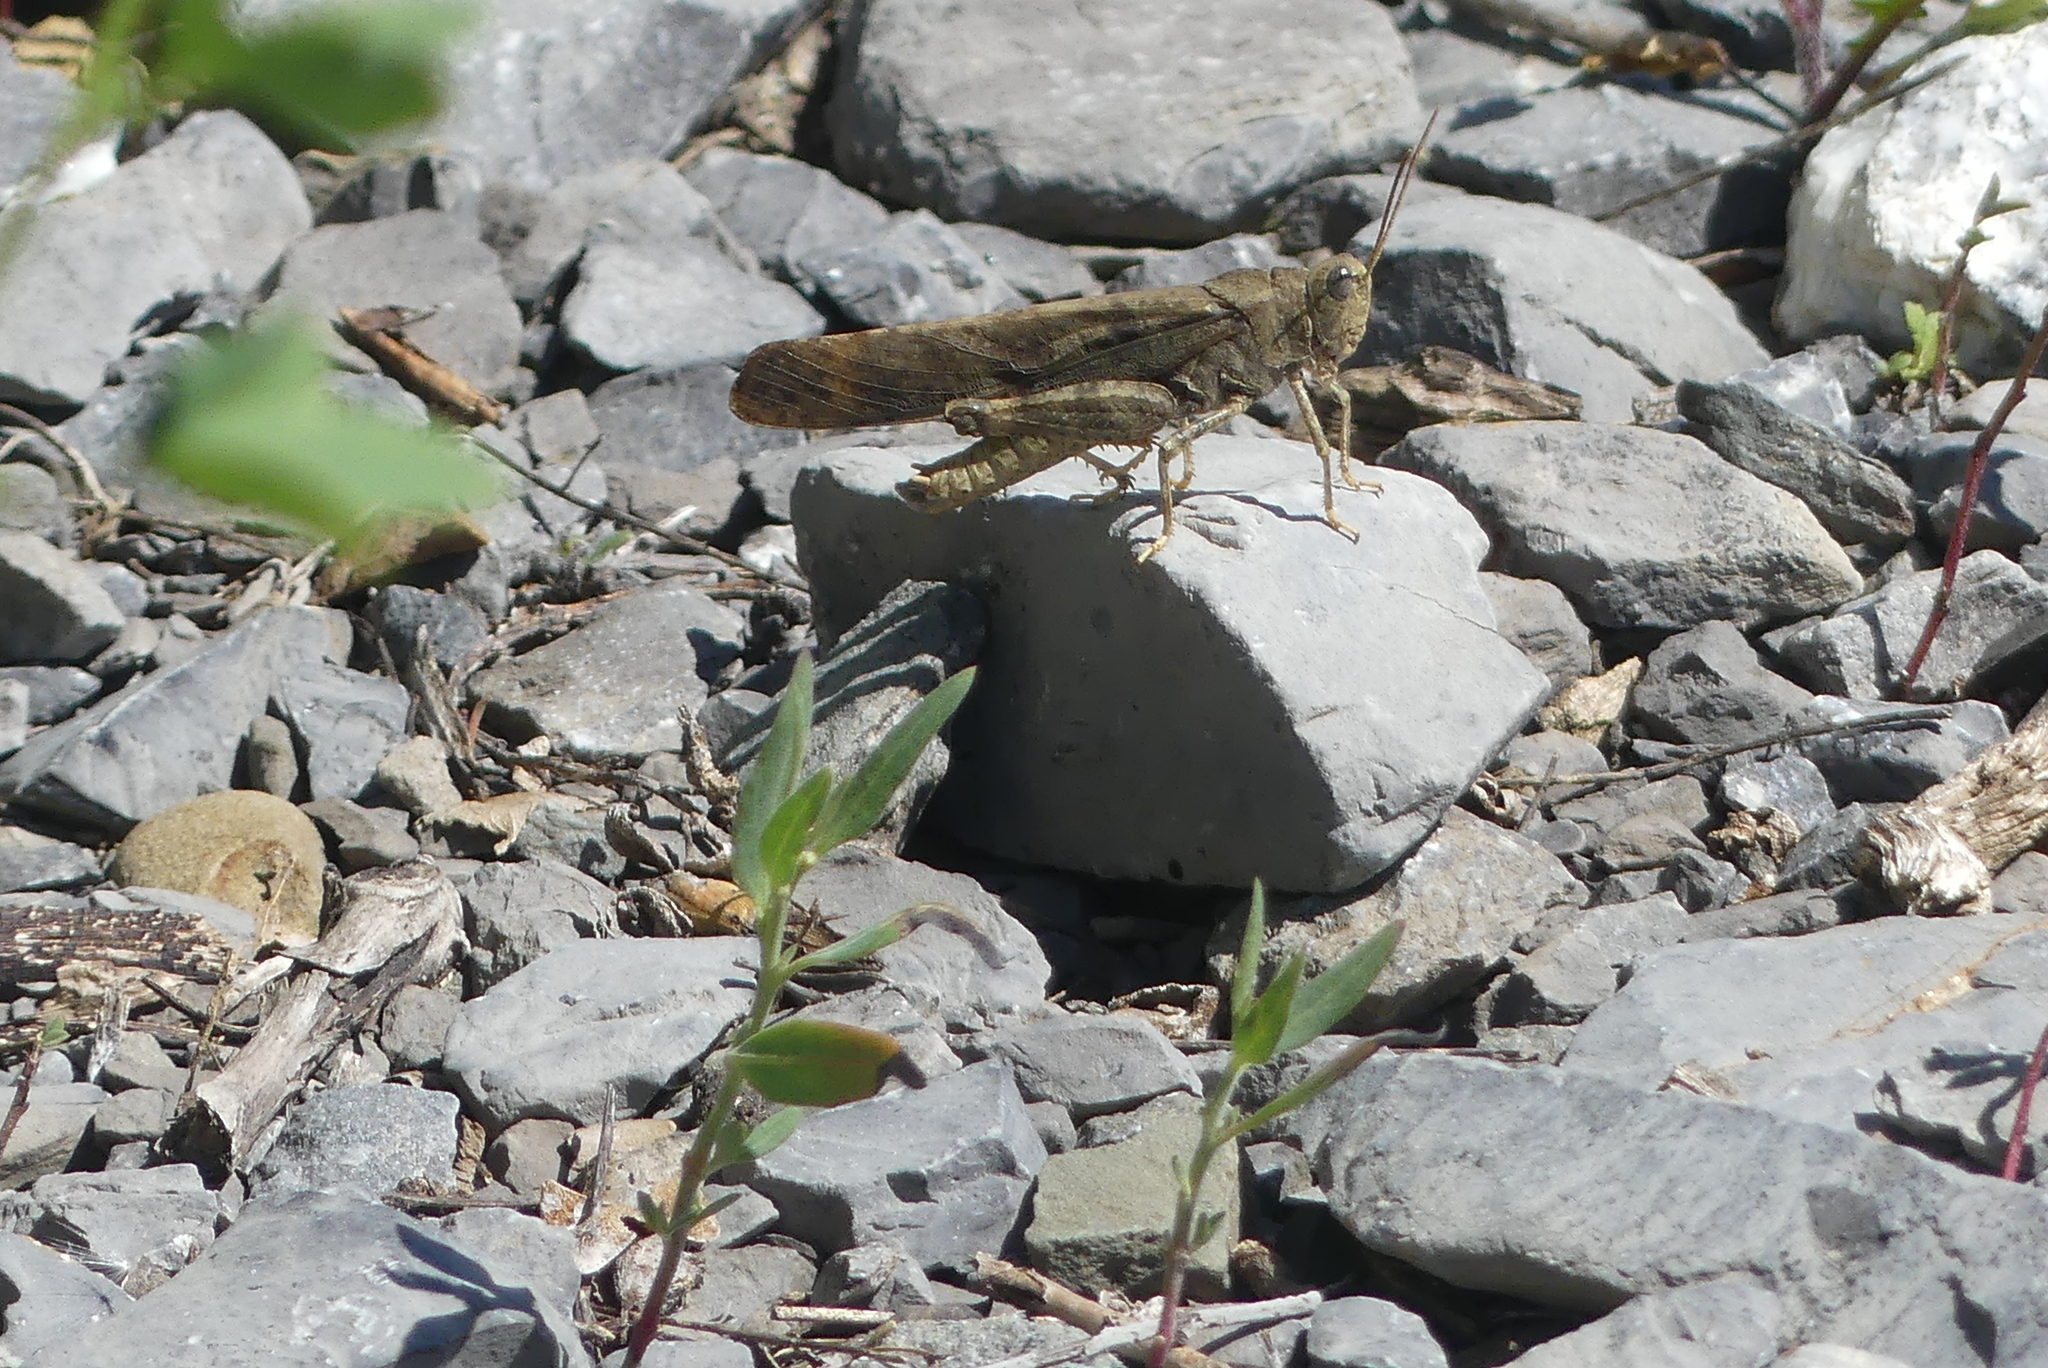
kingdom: Animalia
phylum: Arthropoda
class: Insecta
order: Orthoptera
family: Acrididae
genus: Dissosteira
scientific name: Dissosteira carolina
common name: Carolina grasshopper
